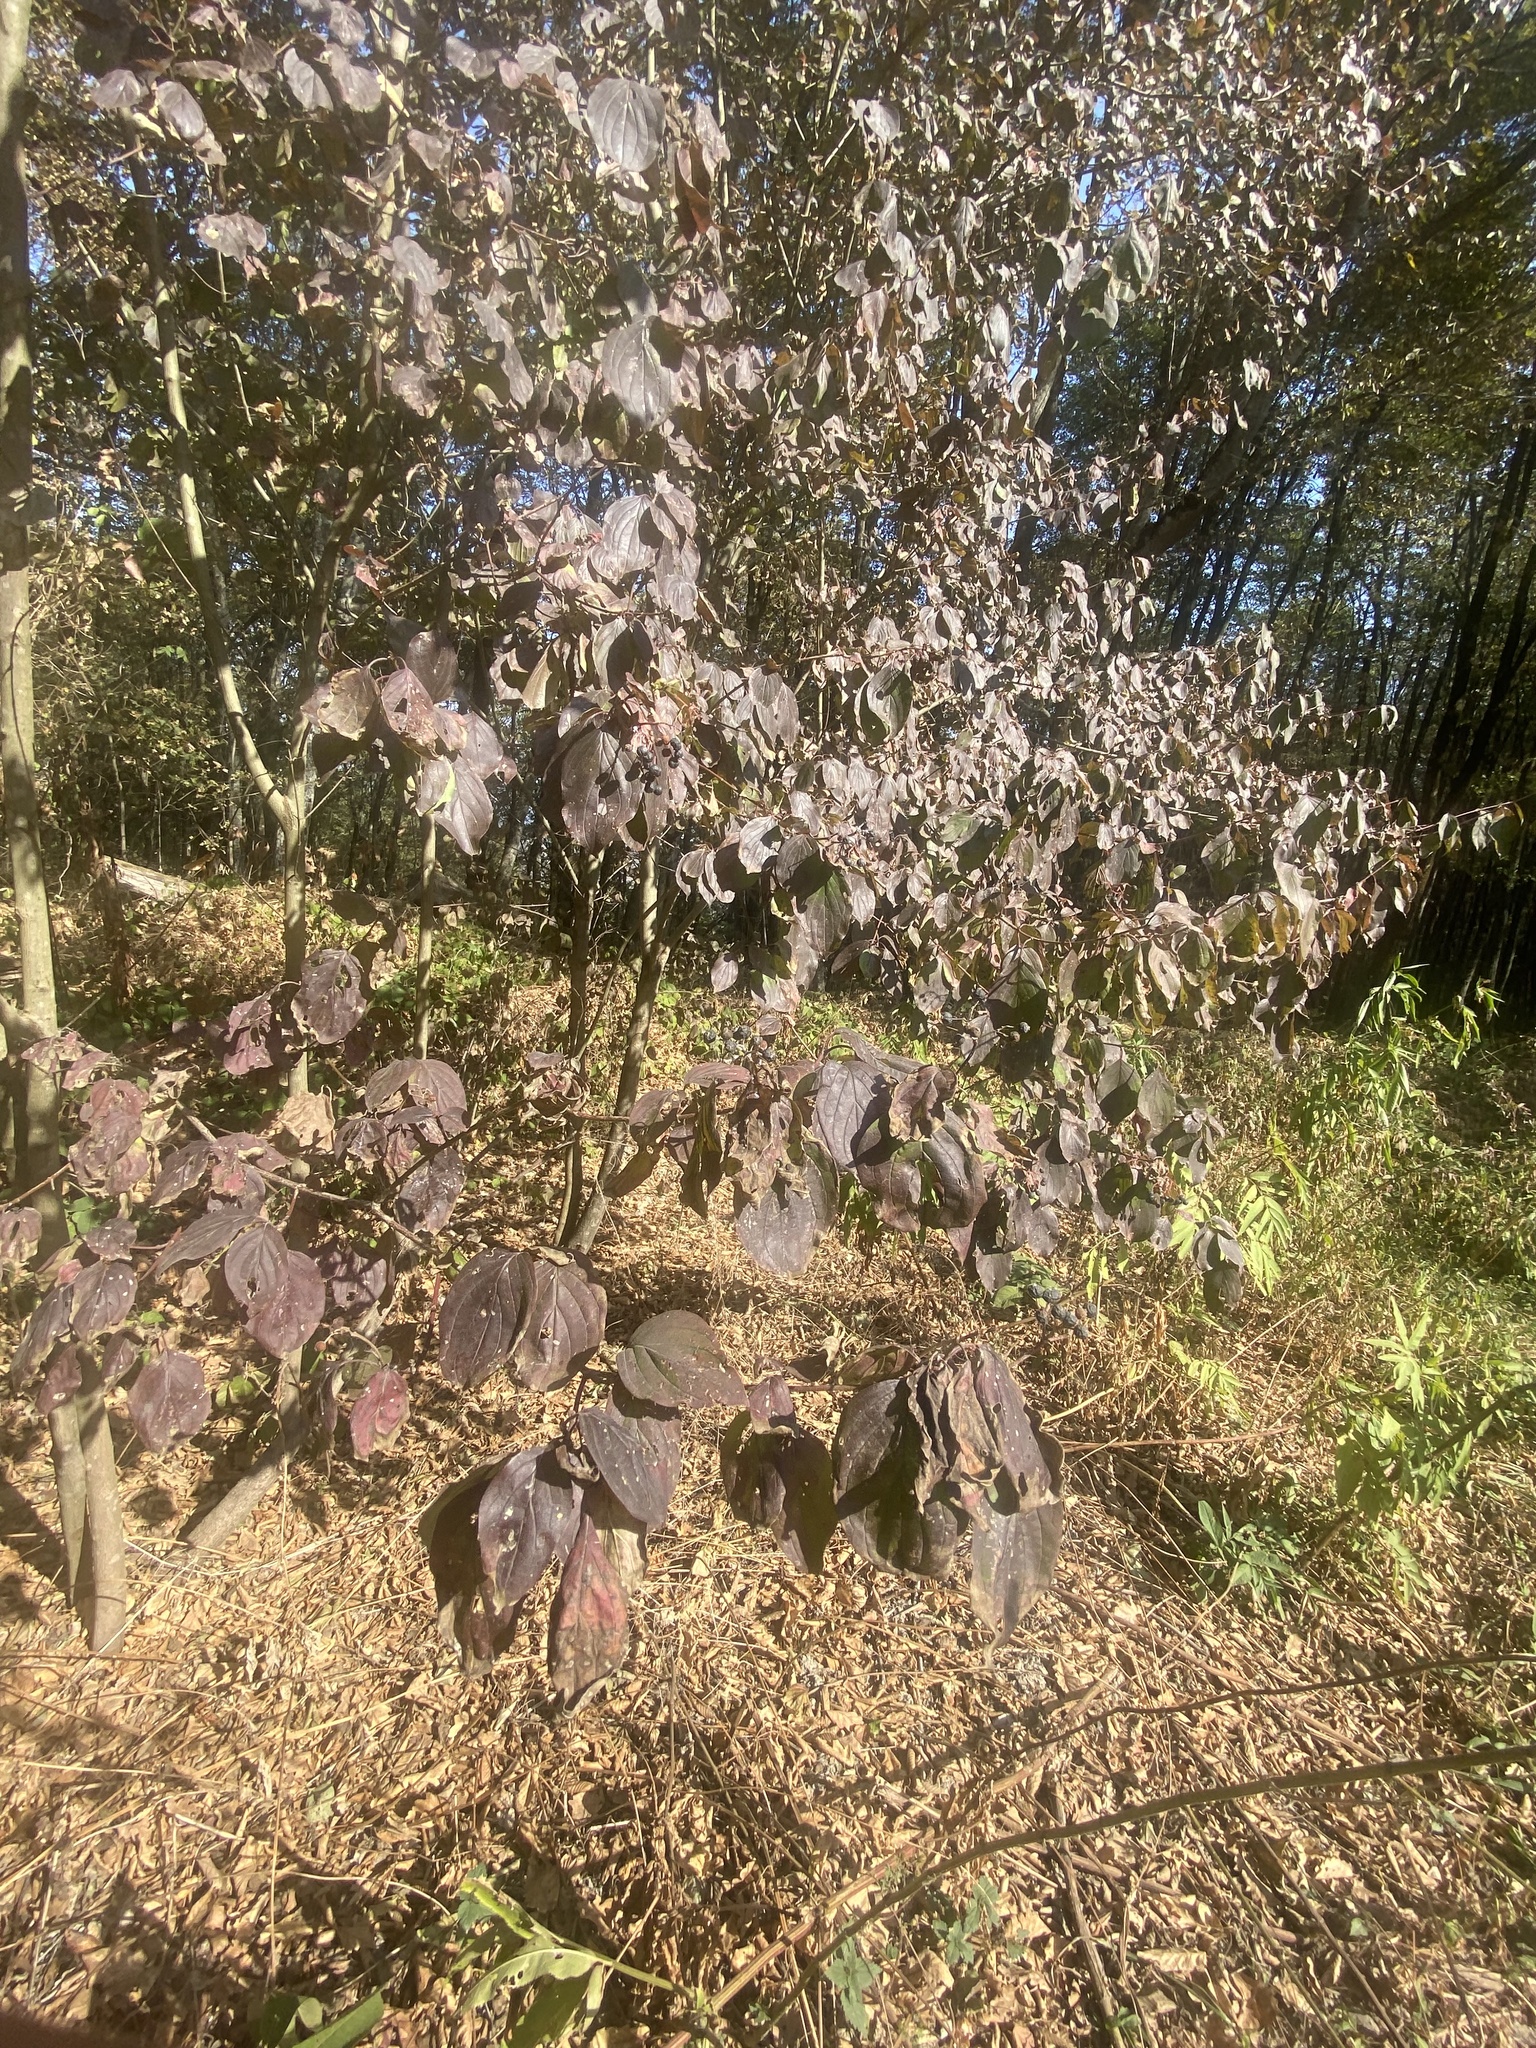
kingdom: Plantae
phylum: Tracheophyta
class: Magnoliopsida
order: Cornales
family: Cornaceae
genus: Cornus
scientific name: Cornus sanguinea
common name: Dogwood
